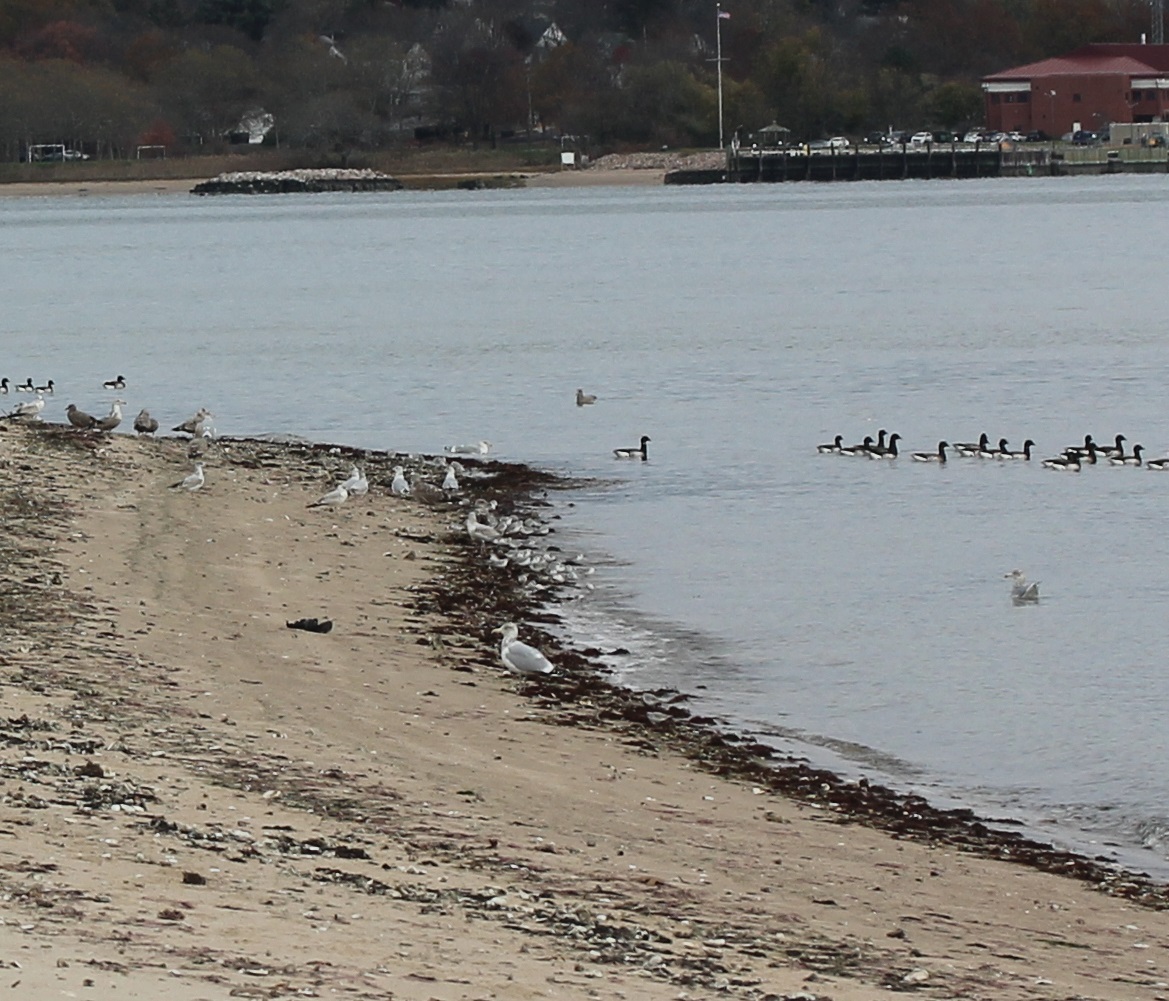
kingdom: Animalia
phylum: Chordata
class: Aves
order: Charadriiformes
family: Scolopacidae
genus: Calidris
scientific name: Calidris alba
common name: Sanderling
